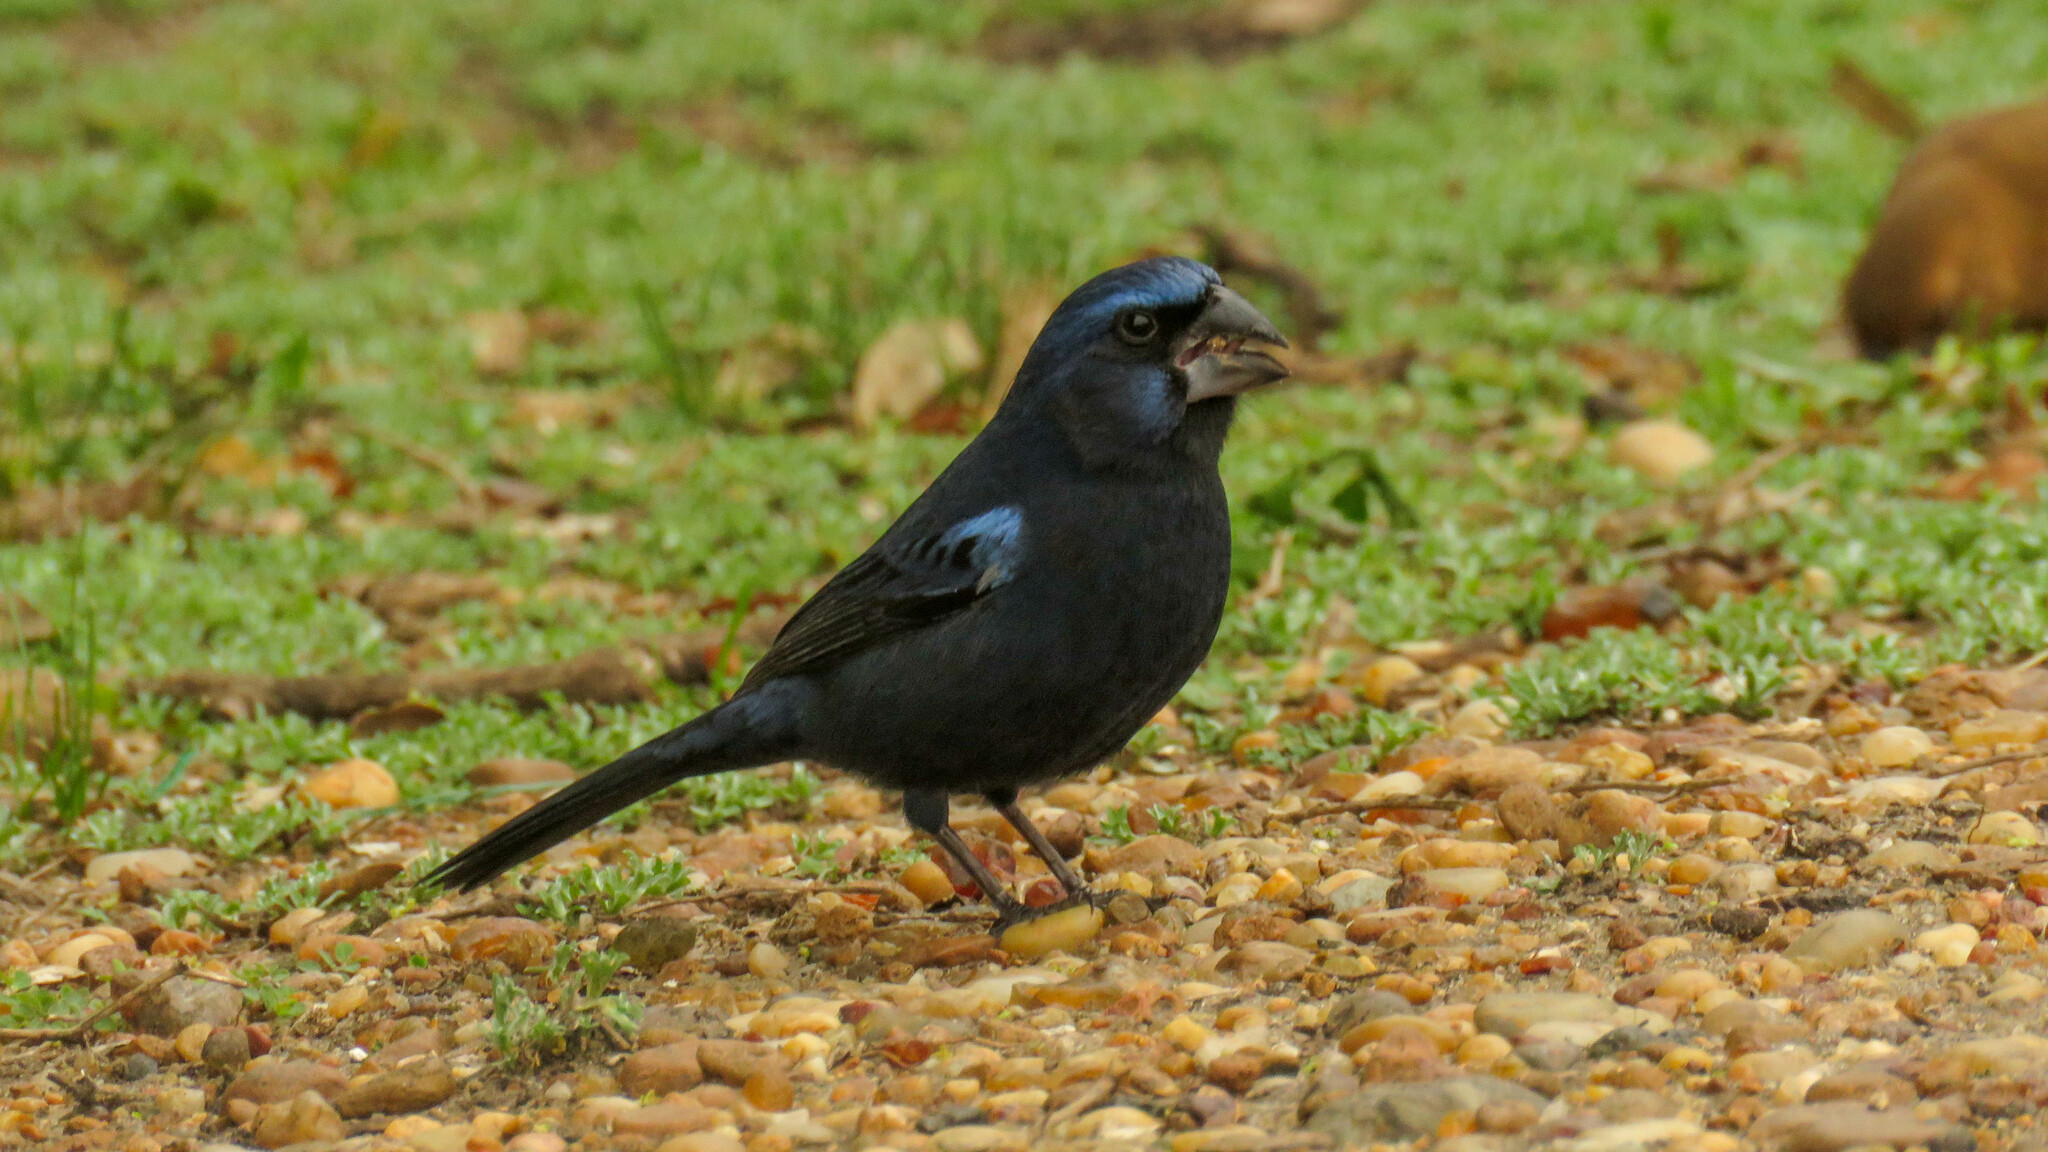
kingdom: Animalia
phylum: Chordata
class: Aves
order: Passeriformes
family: Cardinalidae
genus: Cyanoloxia
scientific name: Cyanoloxia brissonii
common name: Ultramarine grosbeak
